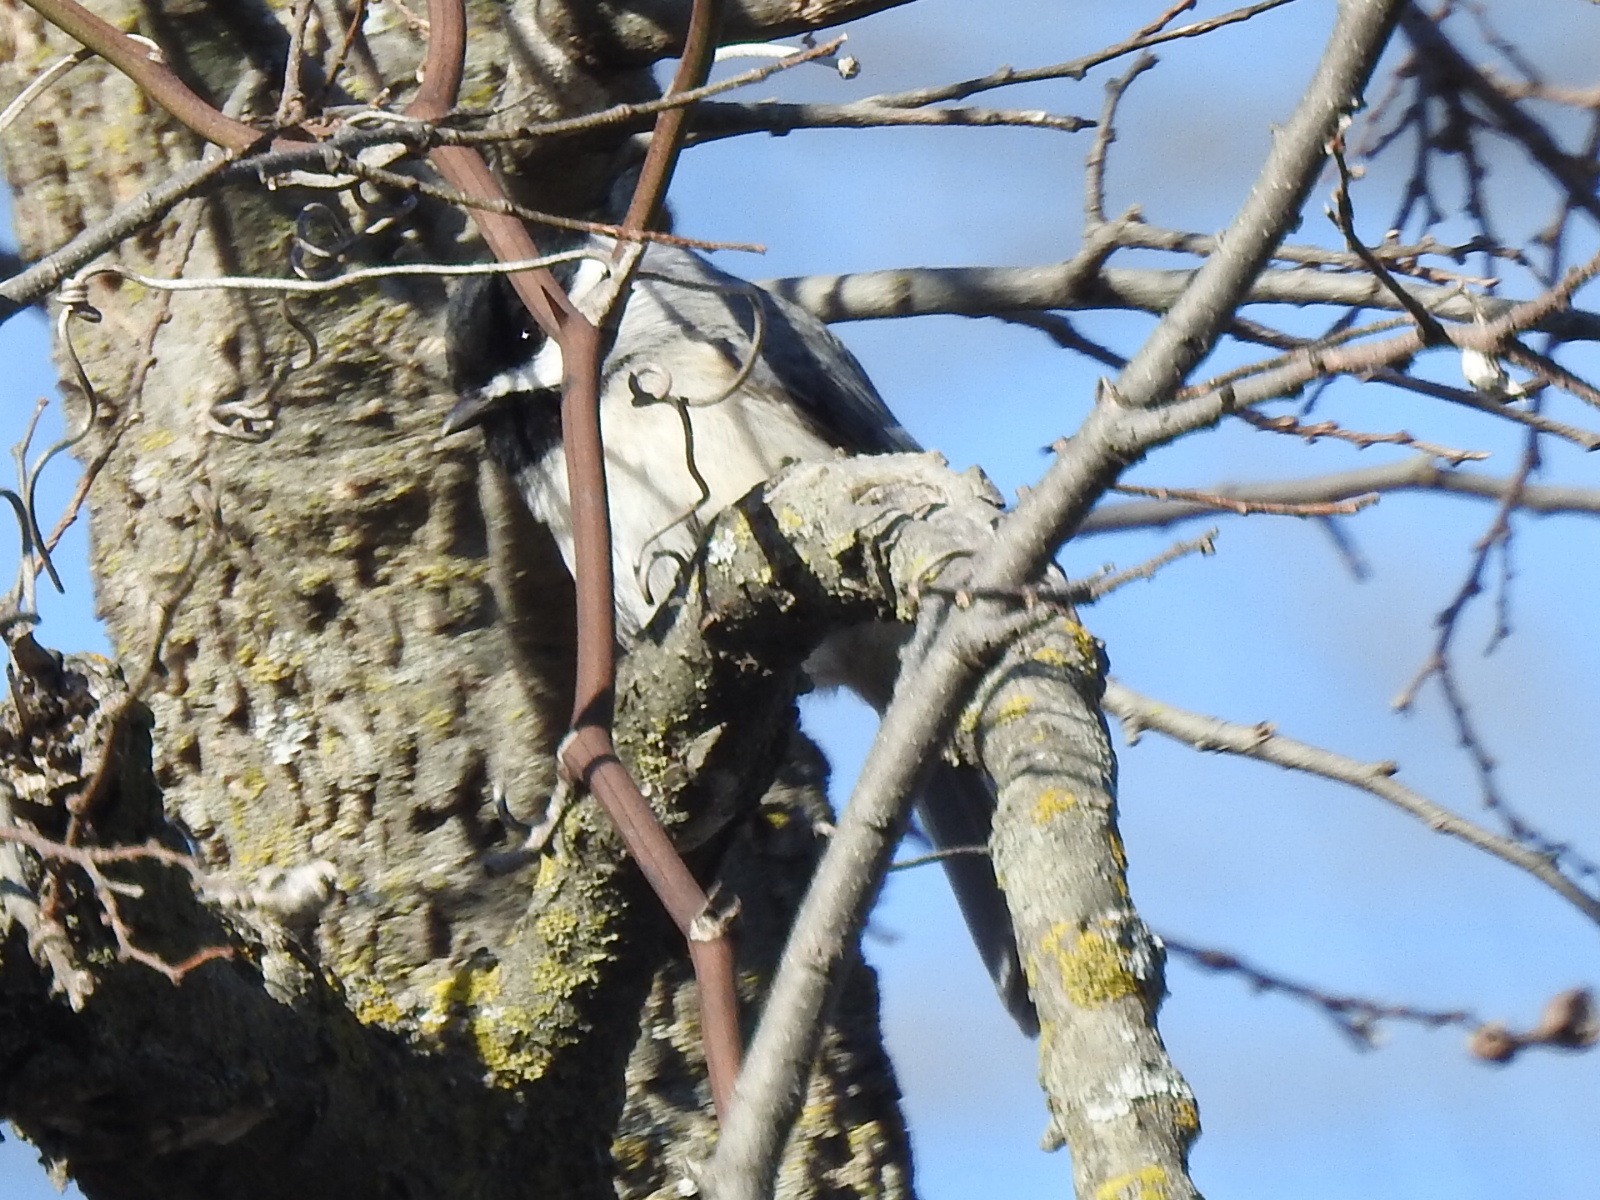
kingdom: Animalia
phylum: Chordata
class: Aves
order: Passeriformes
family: Paridae
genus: Poecile
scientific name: Poecile carolinensis
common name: Carolina chickadee
